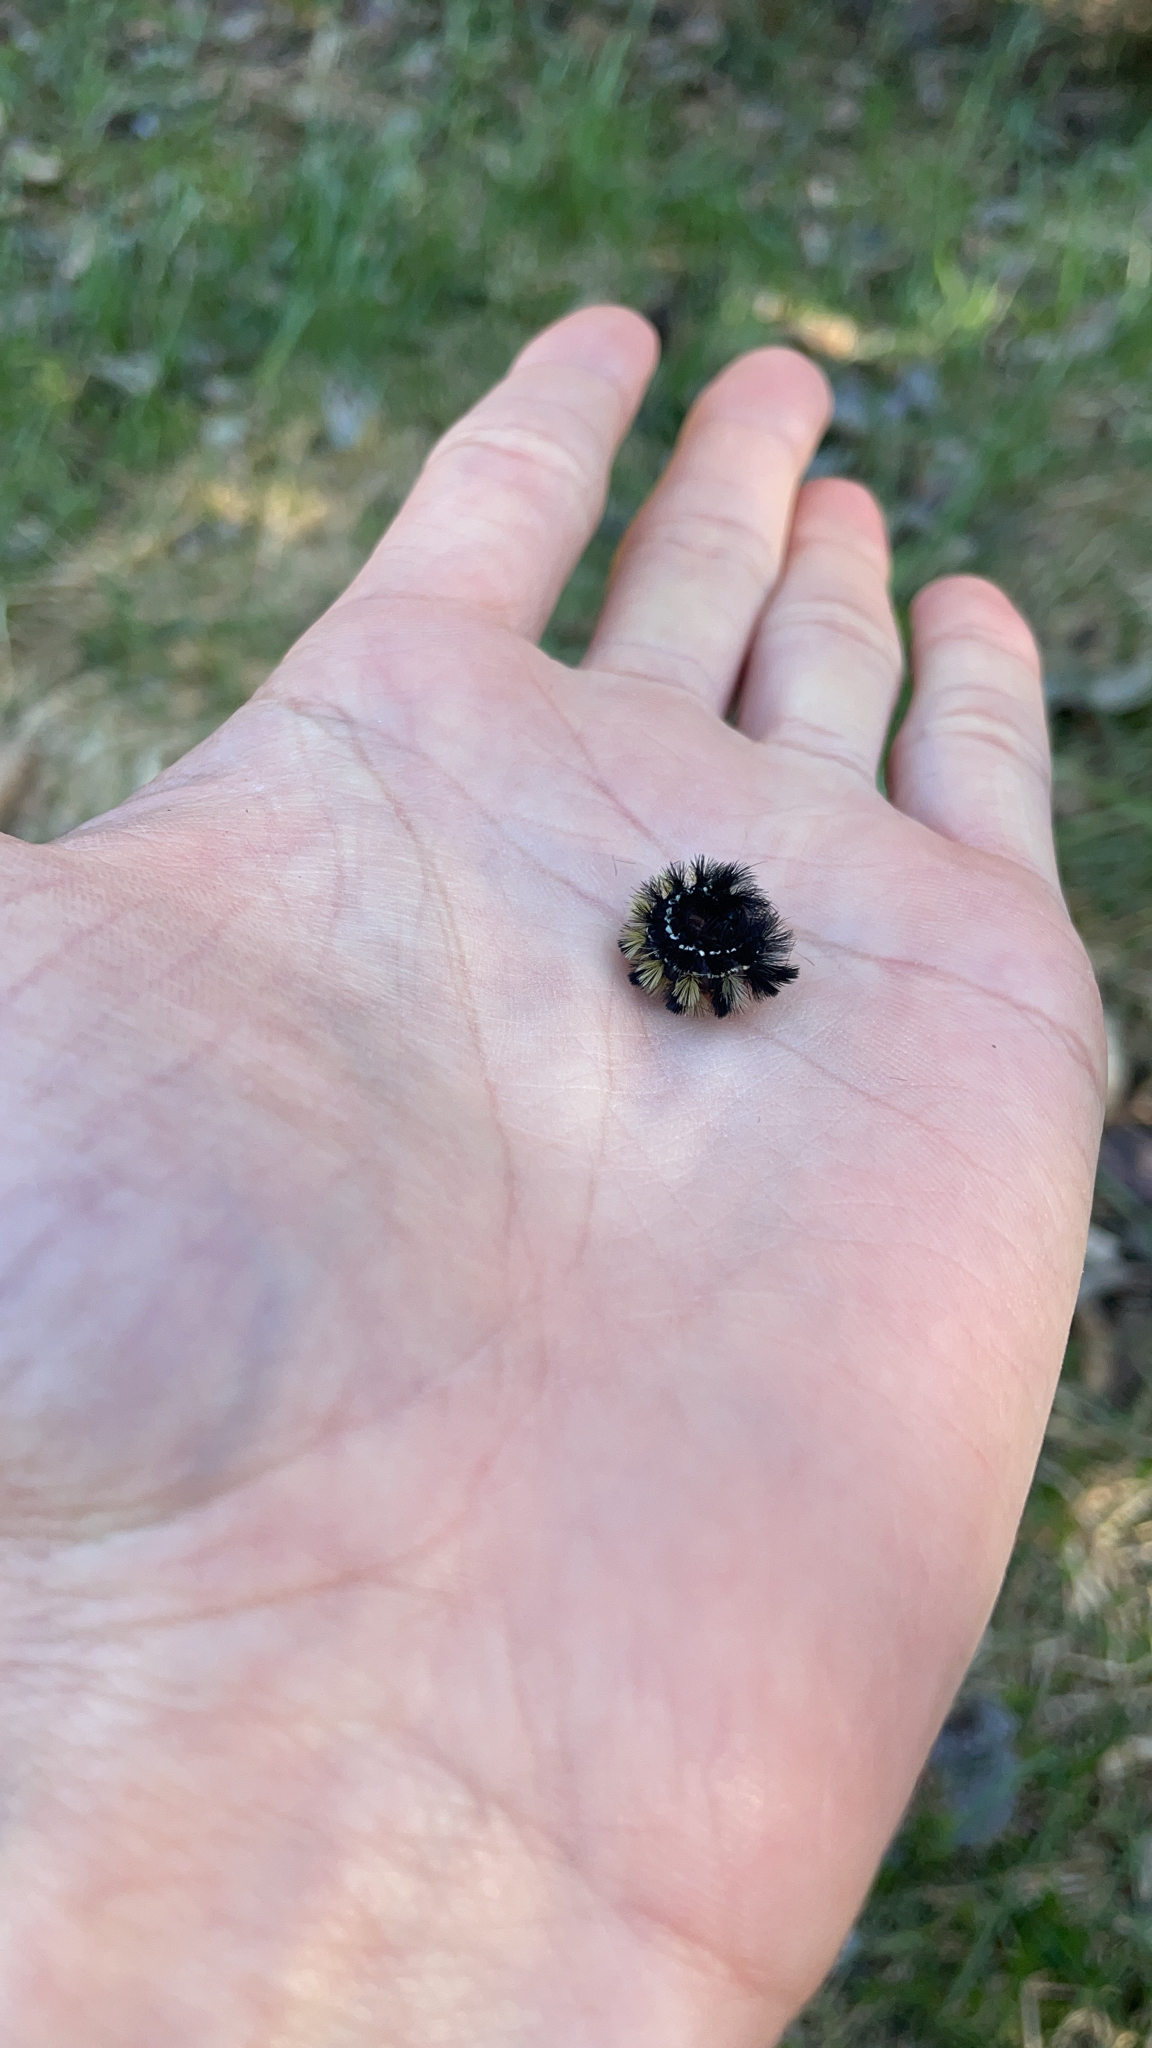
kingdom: Animalia
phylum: Arthropoda
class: Insecta
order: Lepidoptera
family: Erebidae
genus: Ctenucha
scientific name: Ctenucha virginica
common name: Virginia ctenucha moth
